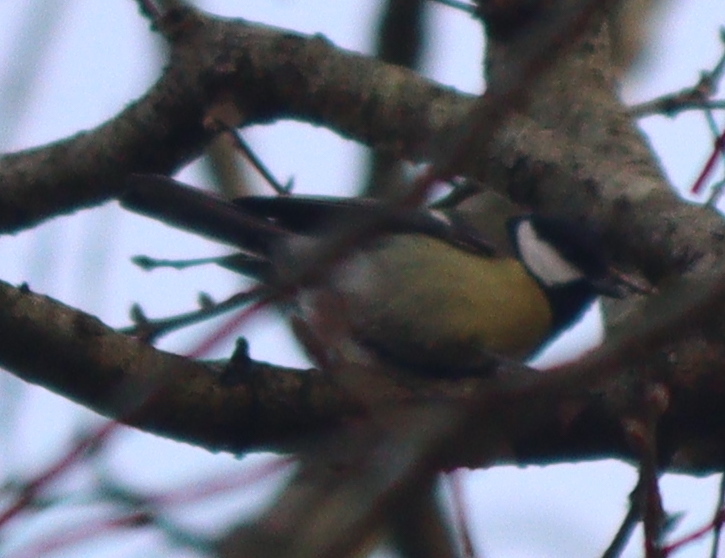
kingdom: Animalia
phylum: Chordata
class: Aves
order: Passeriformes
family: Paridae
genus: Parus
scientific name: Parus major
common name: Great tit
